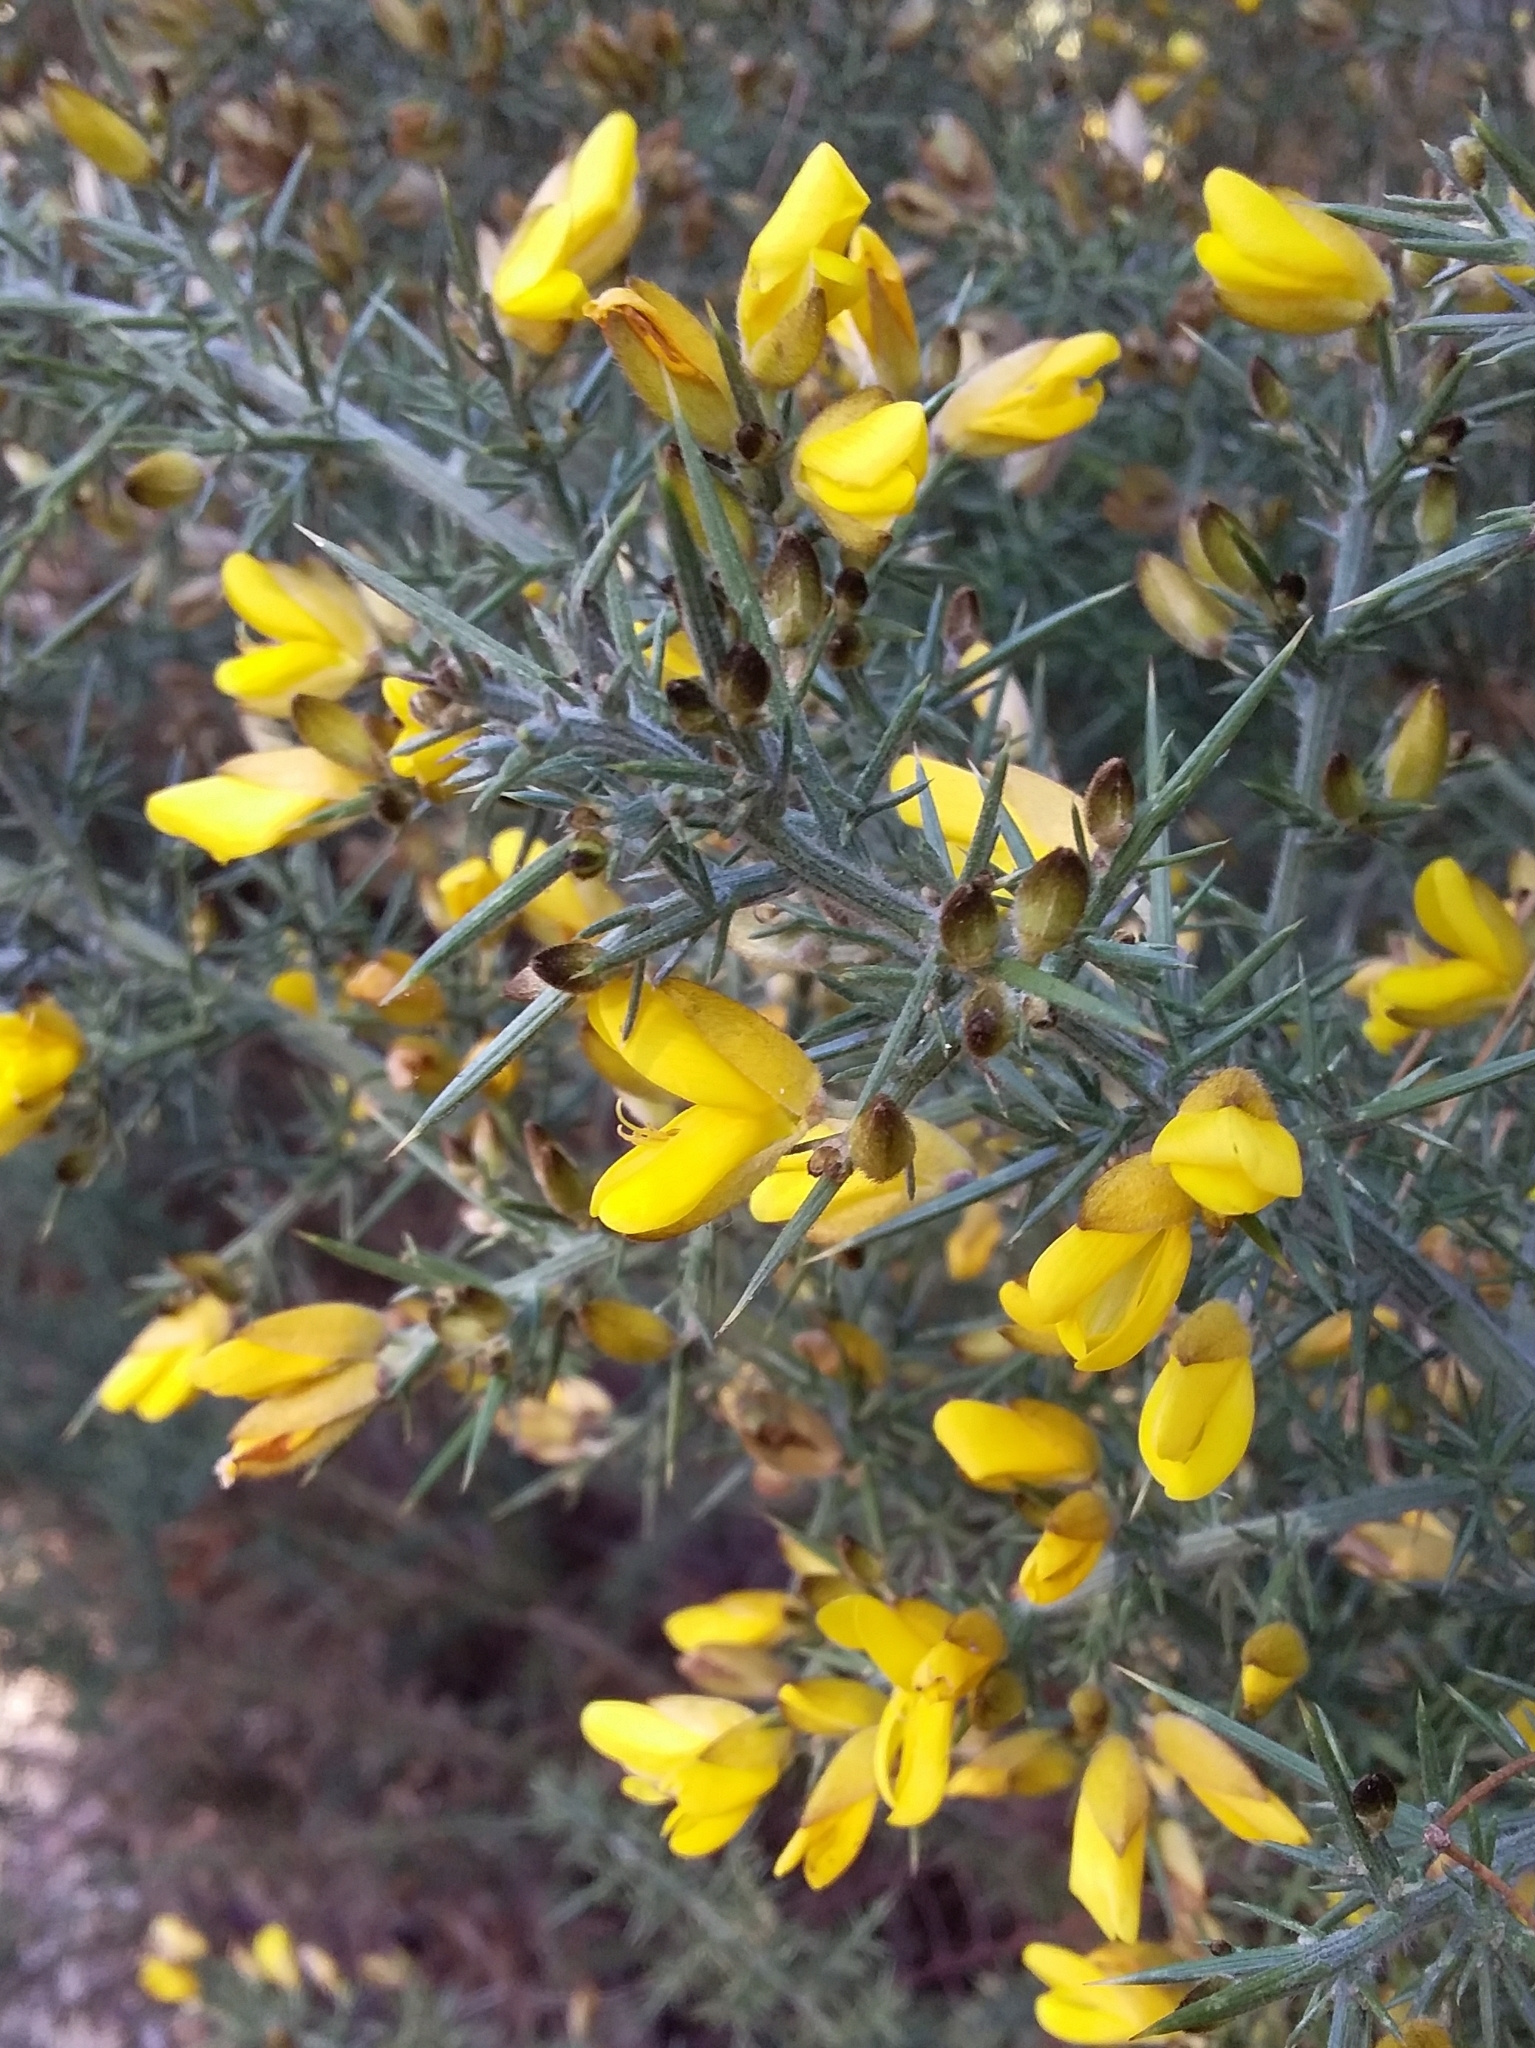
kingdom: Plantae
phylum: Tracheophyta
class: Magnoliopsida
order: Fabales
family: Fabaceae
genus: Ulex
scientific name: Ulex europaeus
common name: Common gorse
